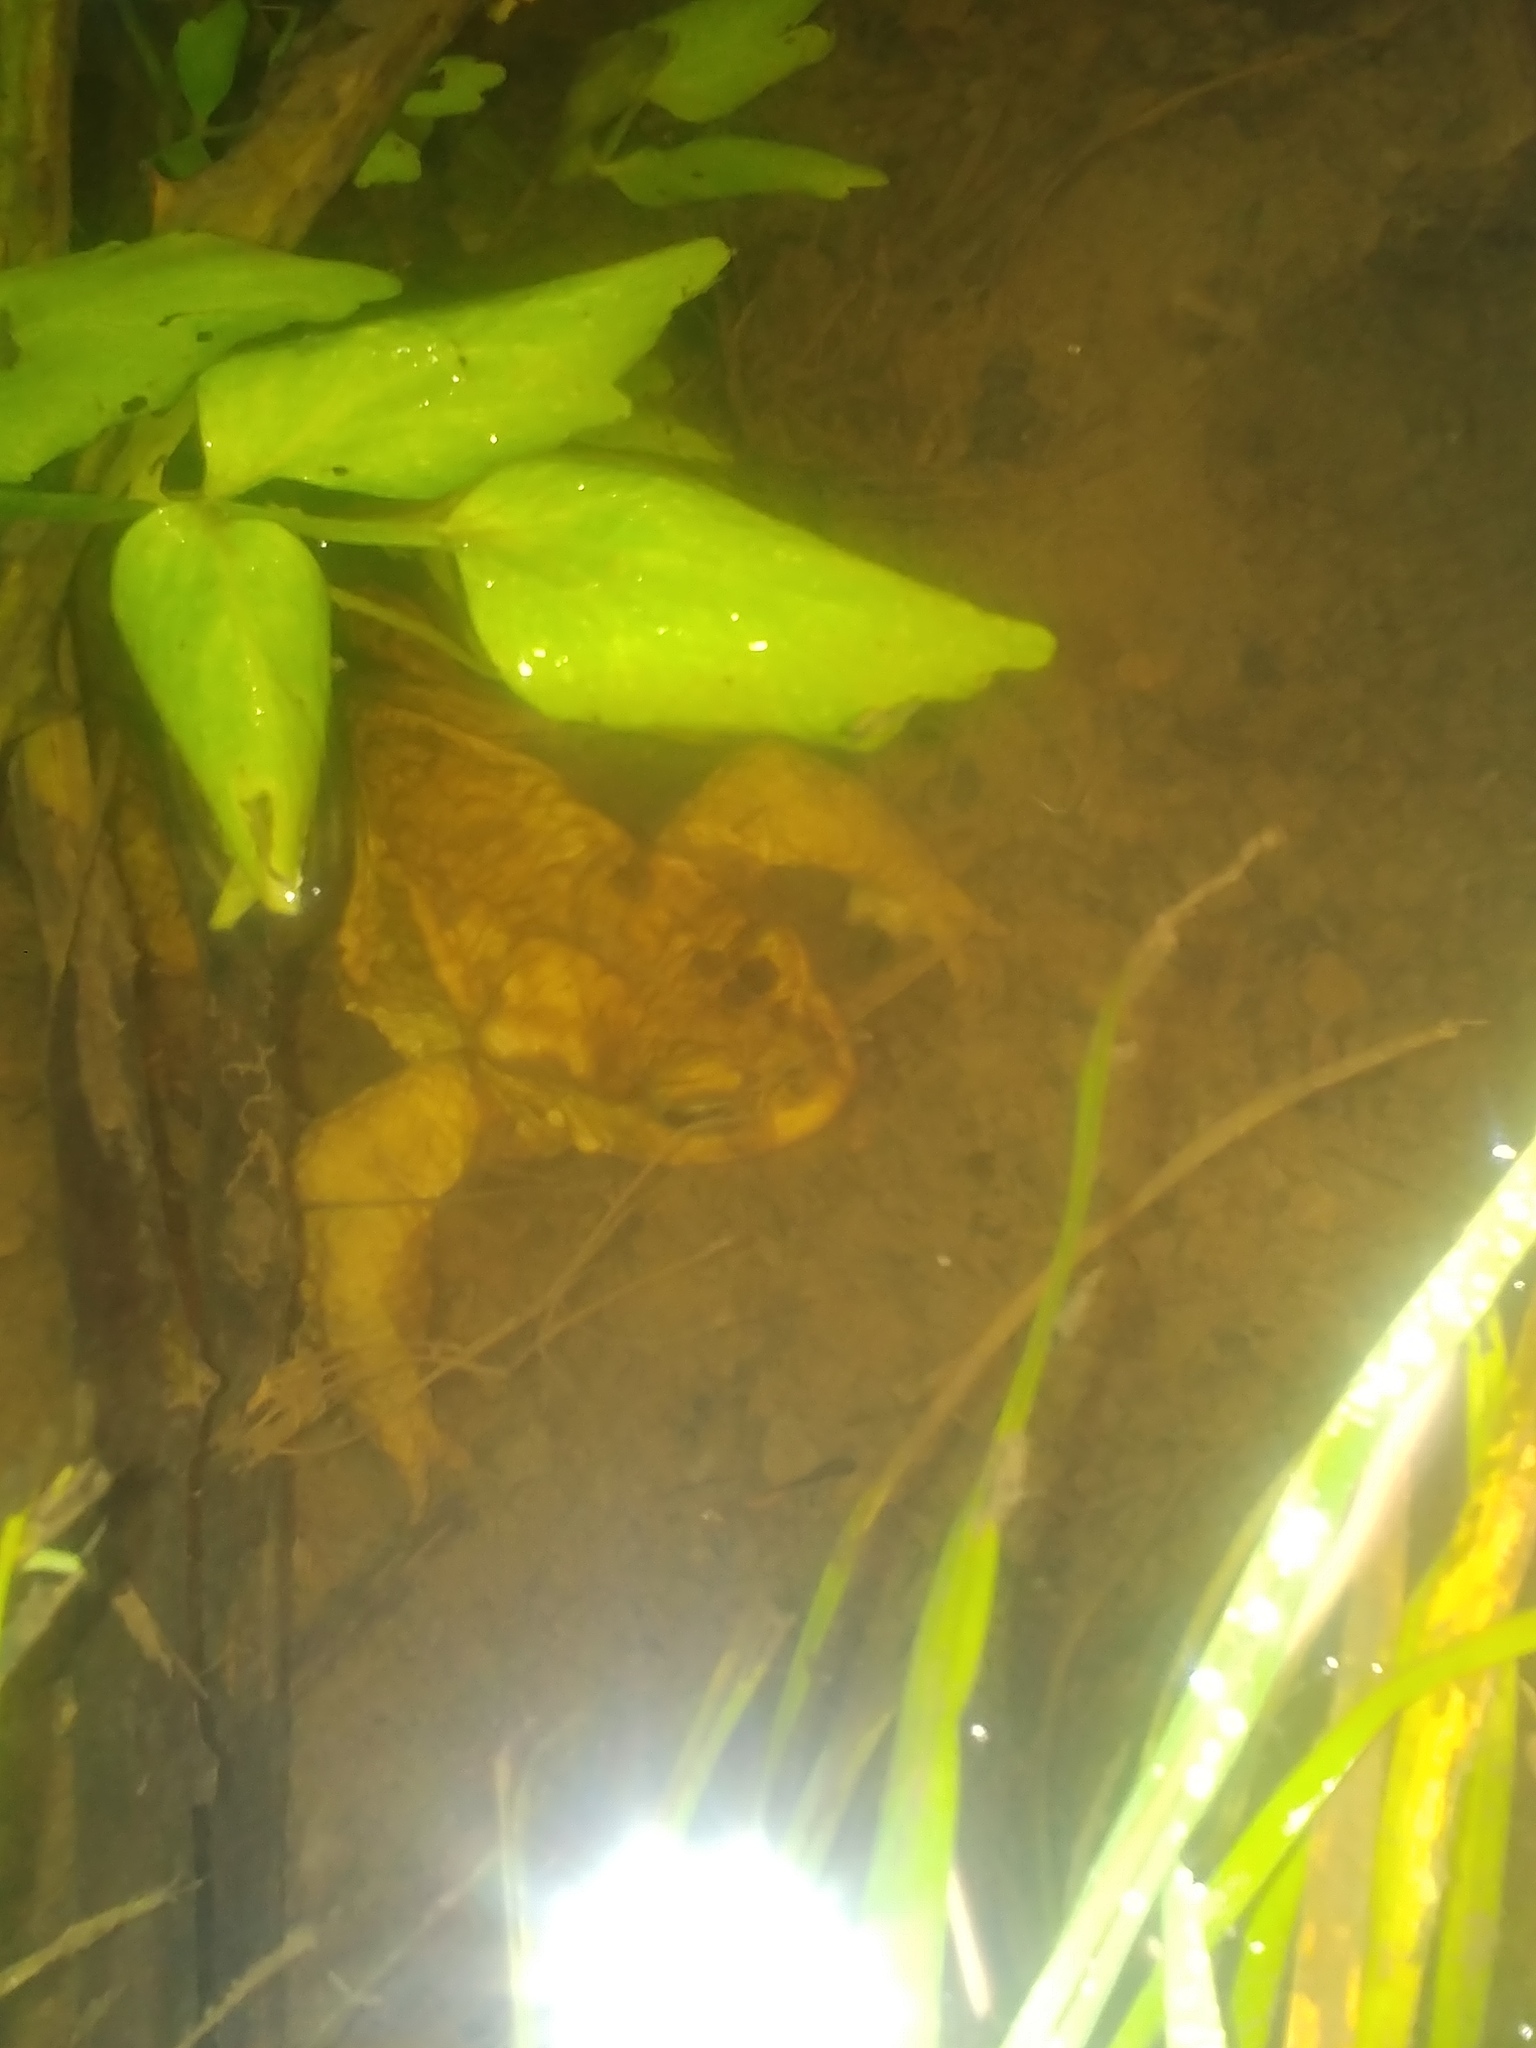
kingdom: Animalia
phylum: Chordata
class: Amphibia
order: Anura
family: Bufonidae
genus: Bufo
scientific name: Bufo spinosus
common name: Western common toad
